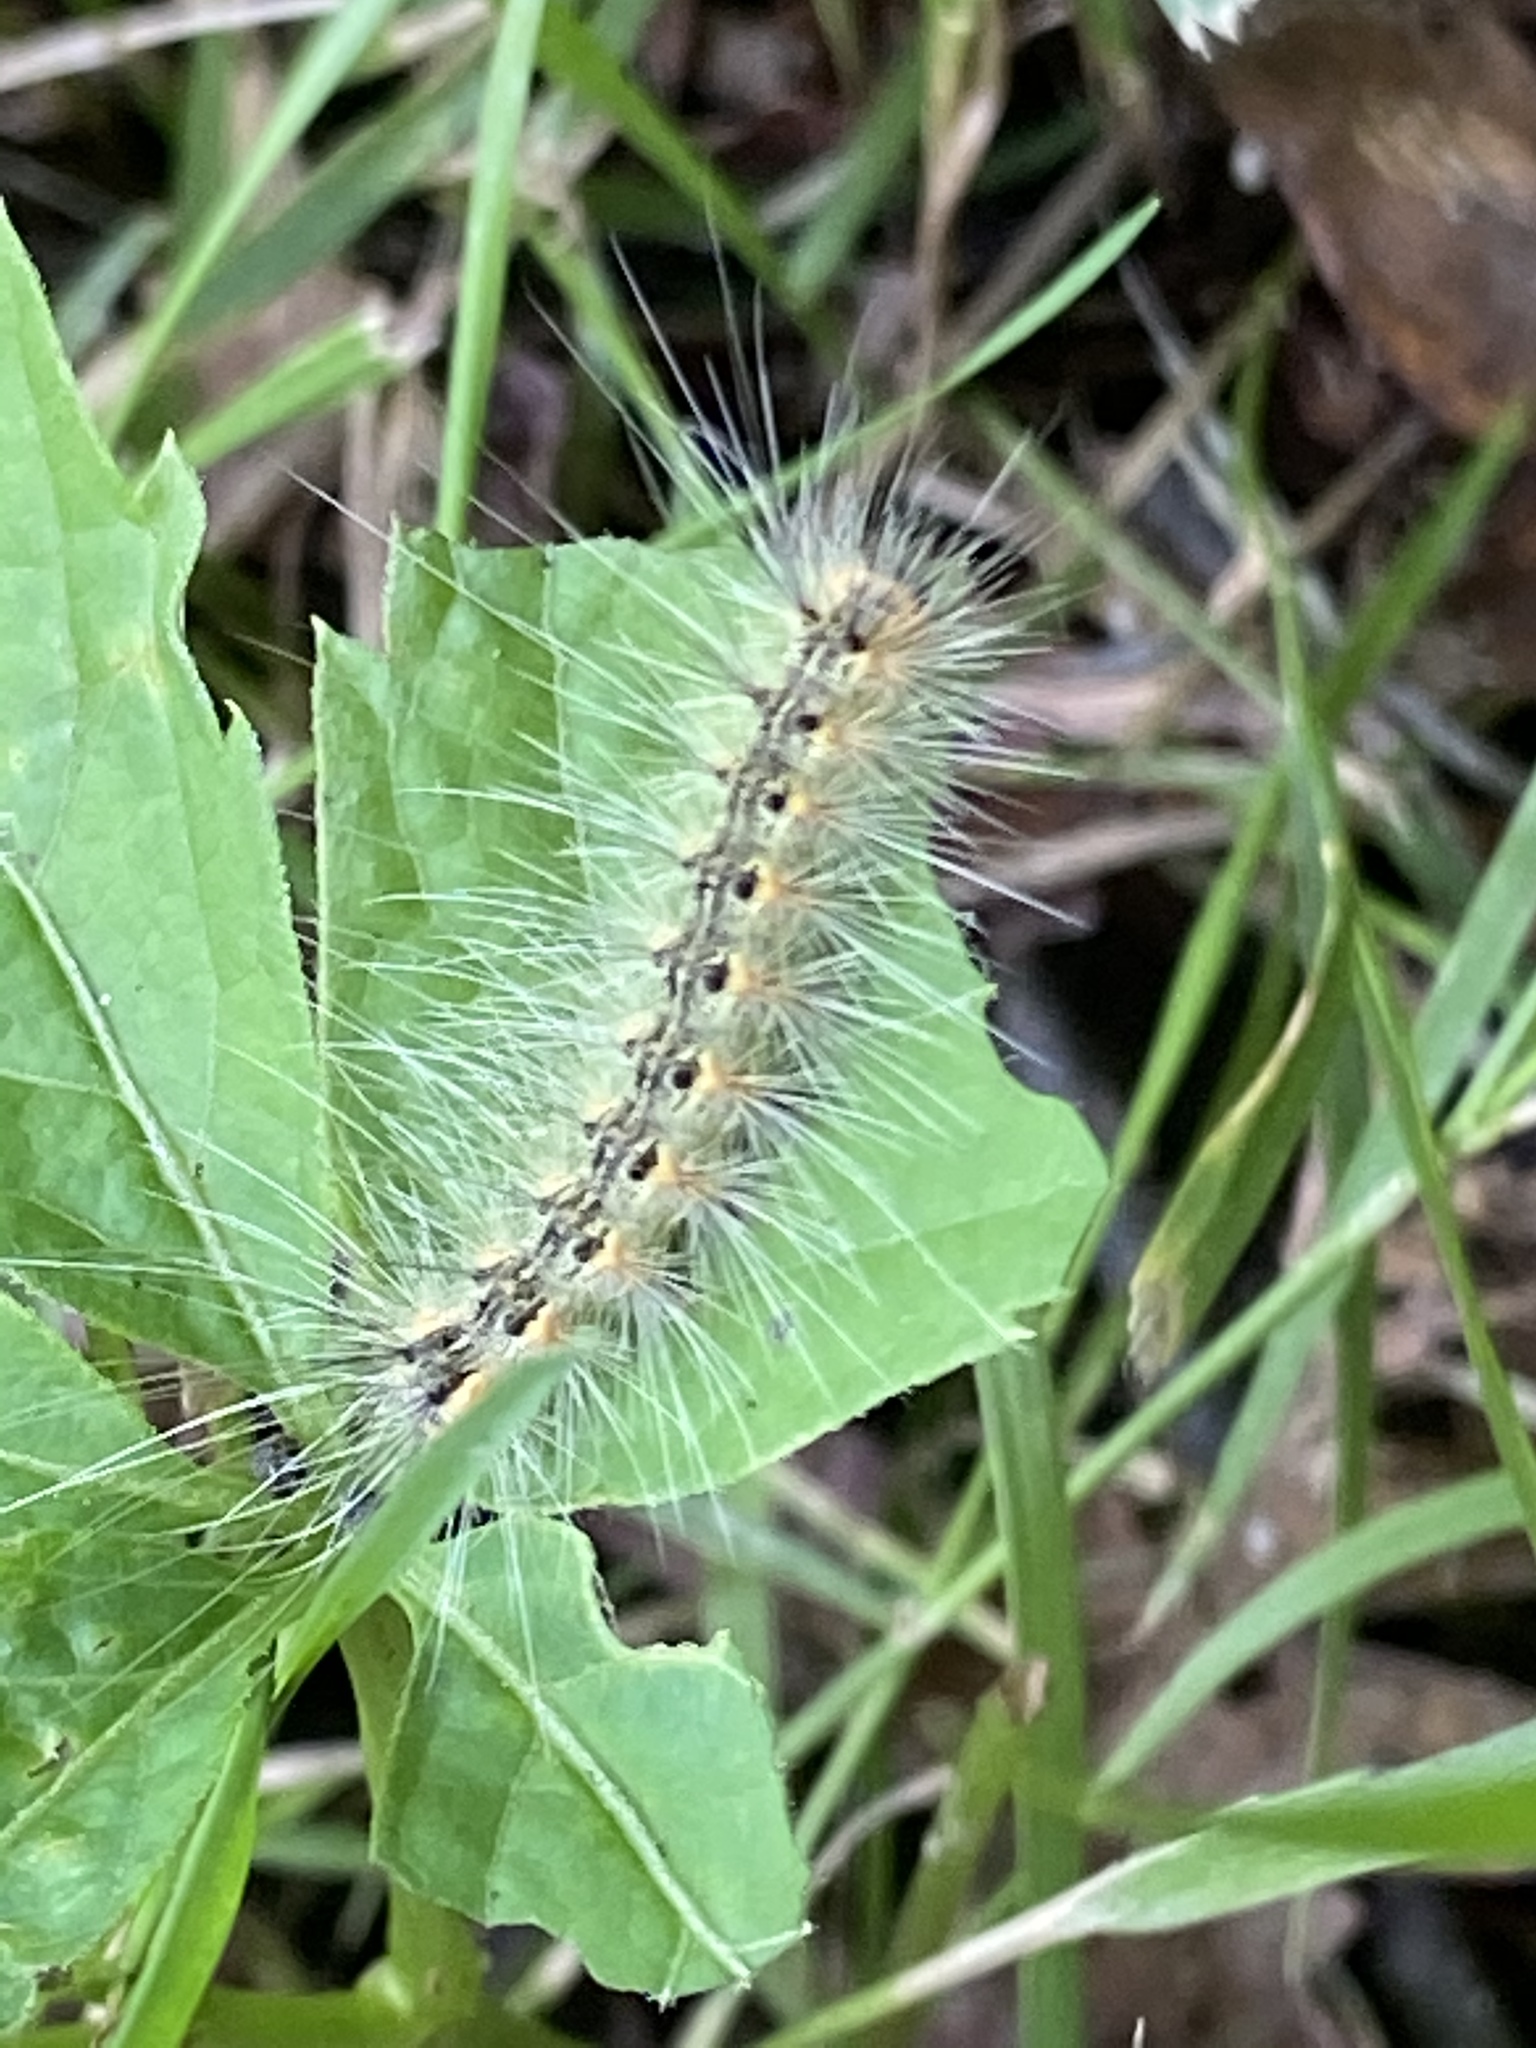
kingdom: Animalia
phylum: Arthropoda
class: Insecta
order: Lepidoptera
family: Erebidae
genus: Hyphantria
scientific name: Hyphantria cunea
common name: American white moth
